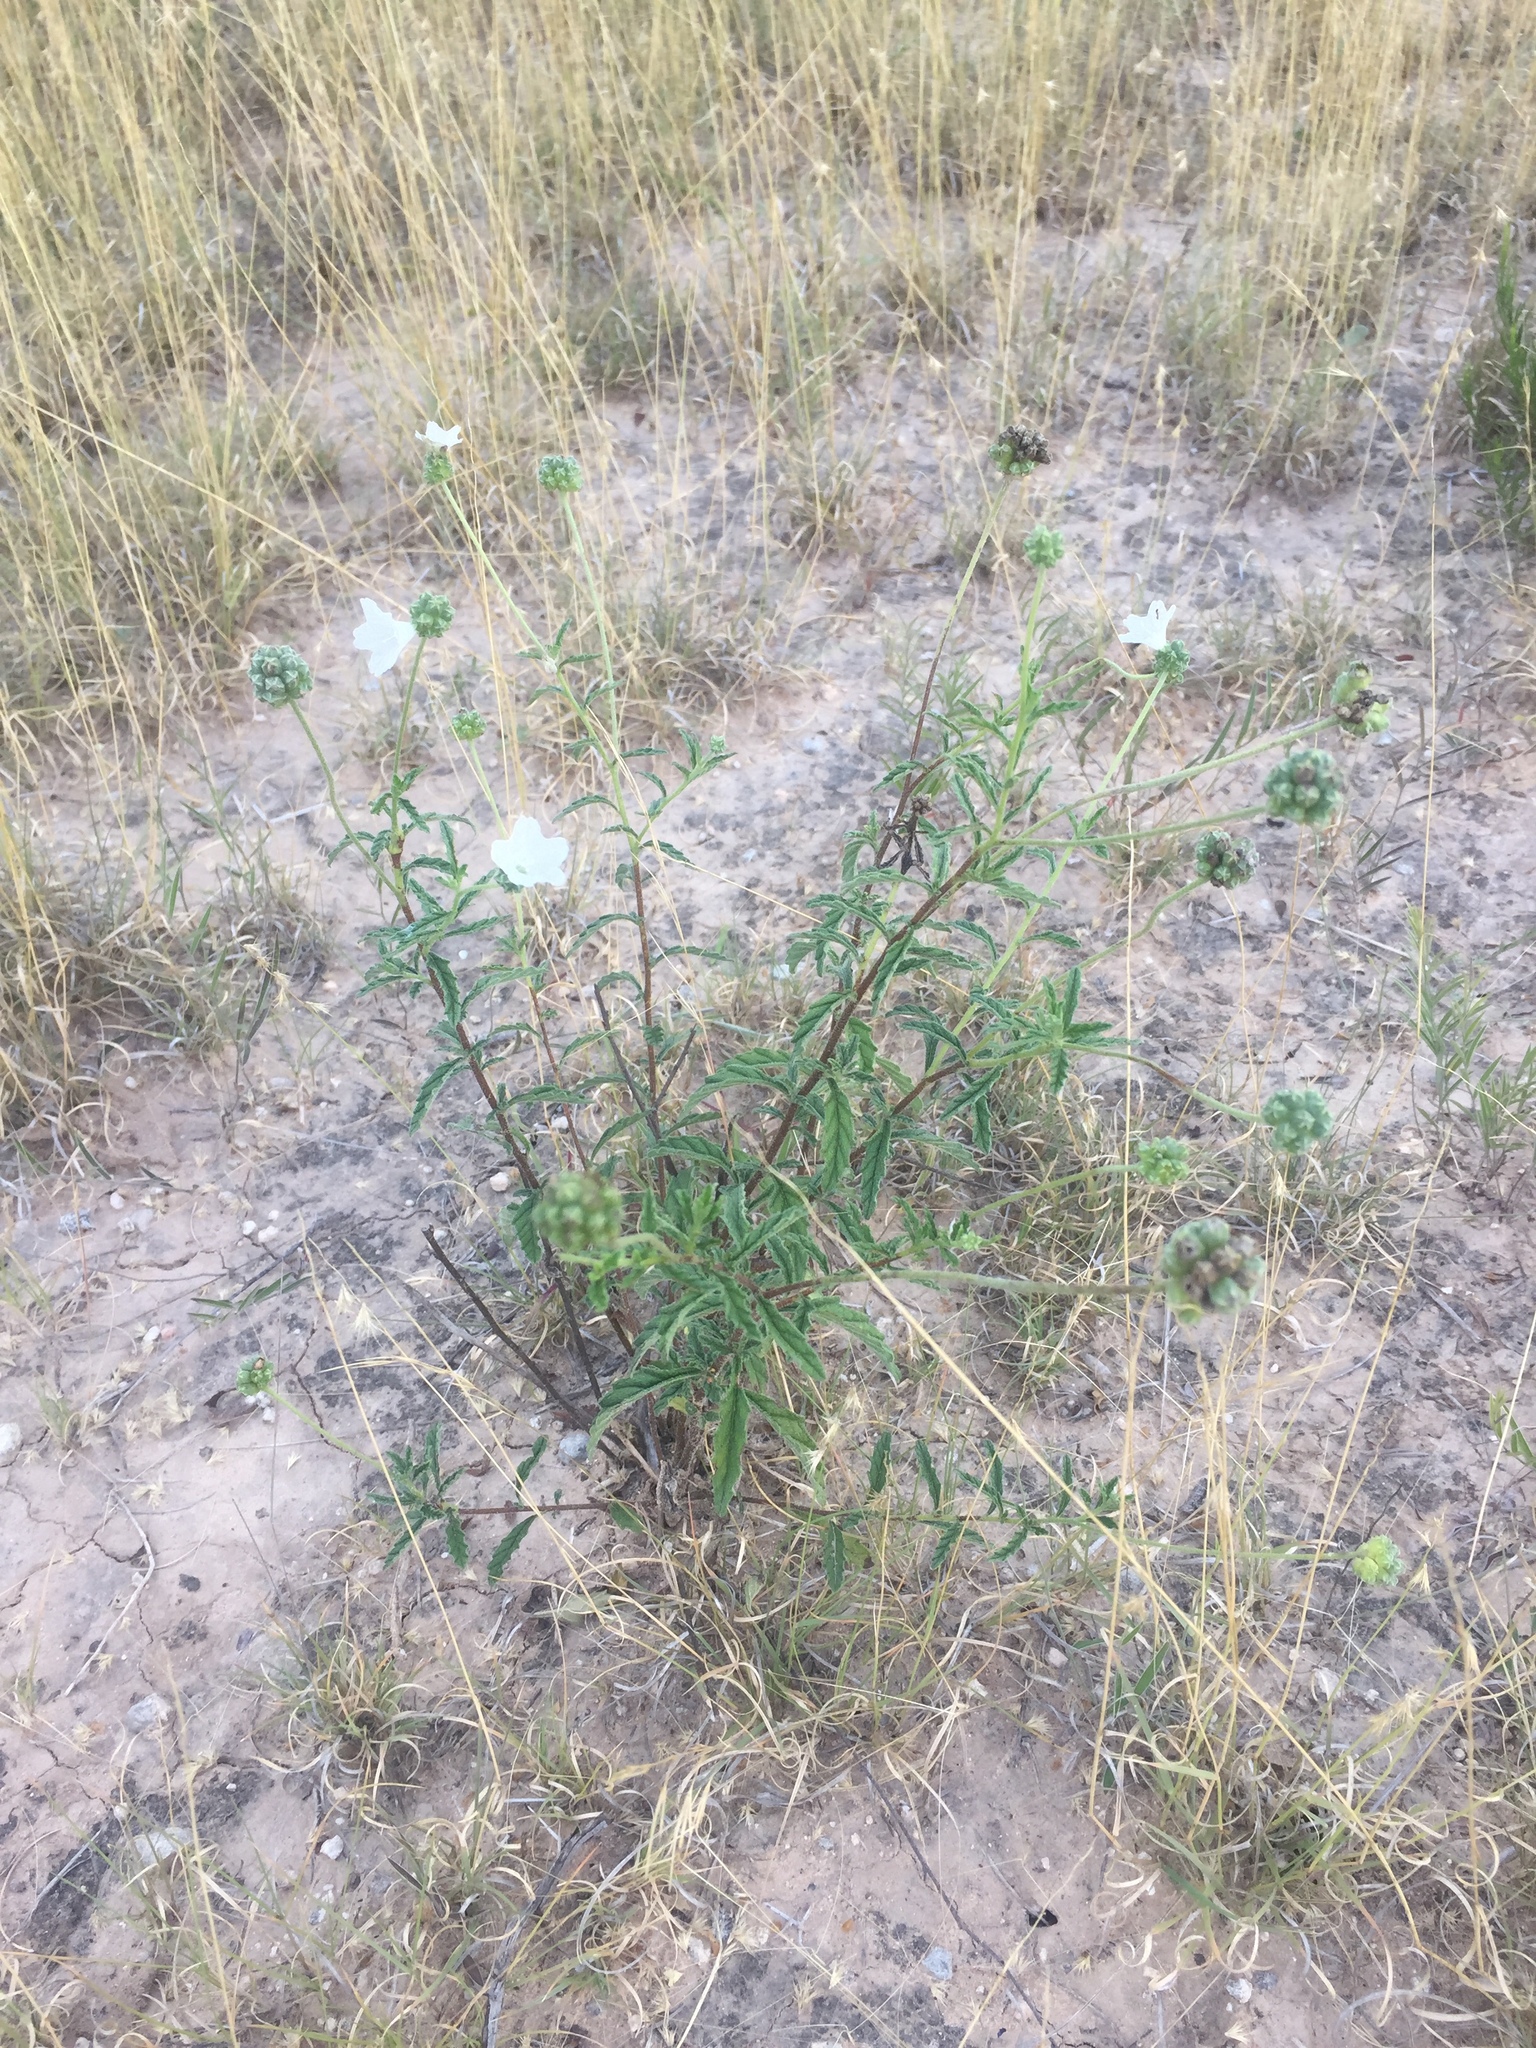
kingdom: Plantae
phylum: Tracheophyta
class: Magnoliopsida
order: Boraginales
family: Cordiaceae
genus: Varronia
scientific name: Varronia podocephala
